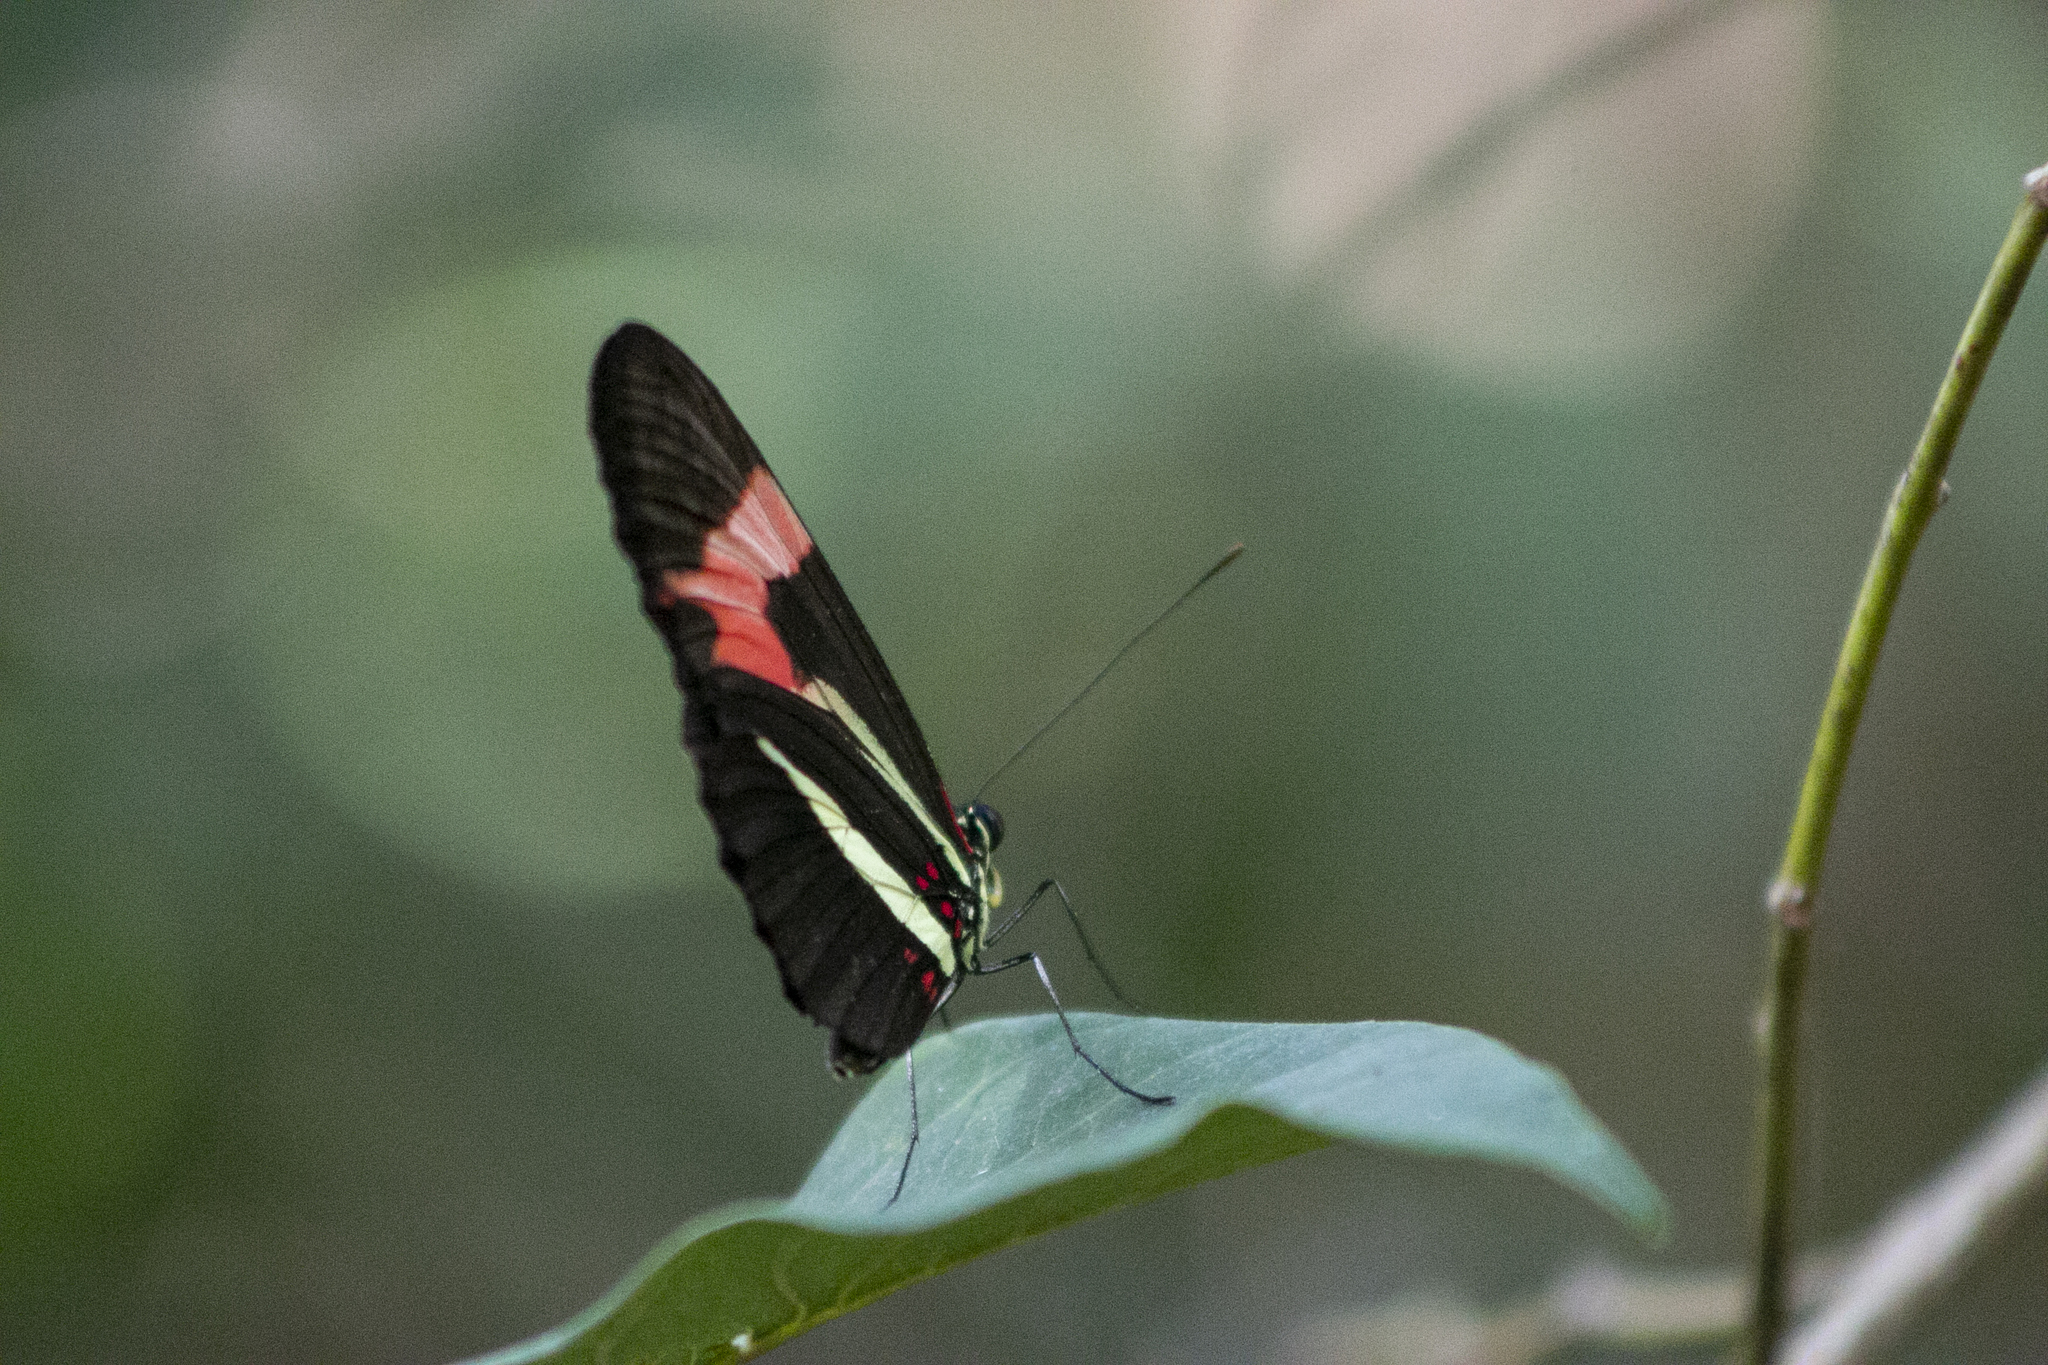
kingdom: Animalia
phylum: Arthropoda
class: Insecta
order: Lepidoptera
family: Nymphalidae
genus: Heliconius
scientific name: Heliconius erato
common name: Common patch longwing
